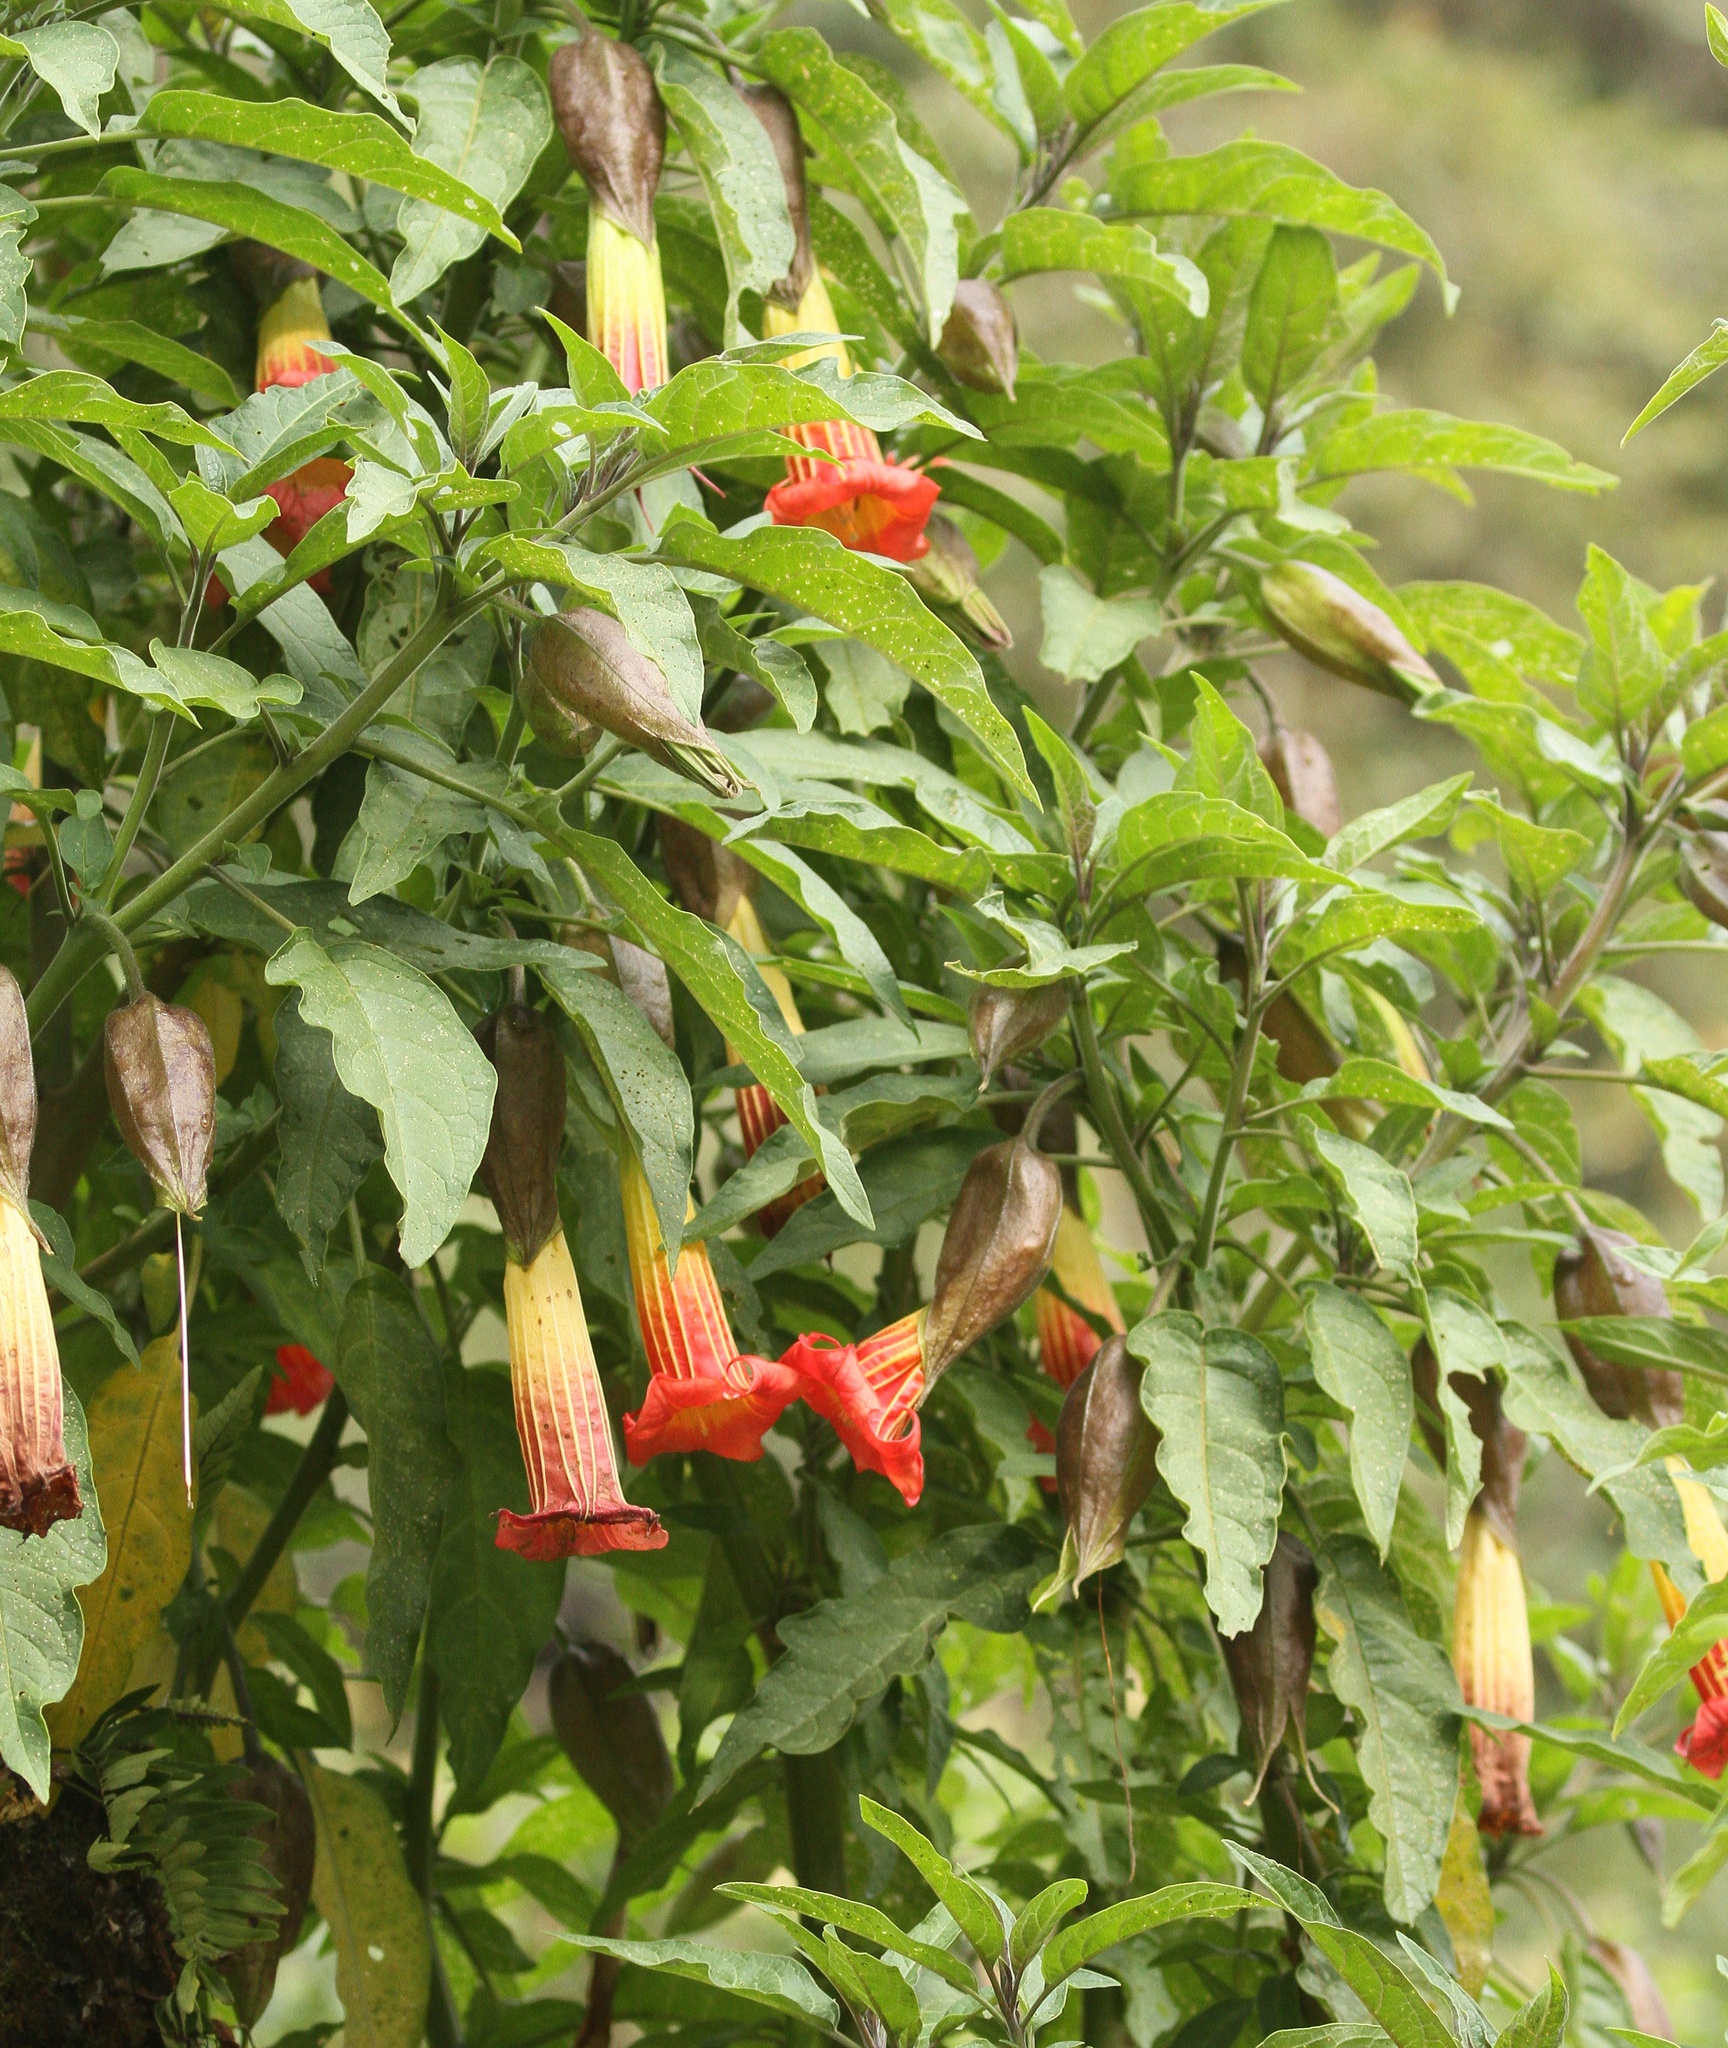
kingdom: Plantae
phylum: Tracheophyta
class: Magnoliopsida
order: Solanales
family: Solanaceae
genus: Brugmansia
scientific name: Brugmansia sanguinea
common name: Red floripontio
